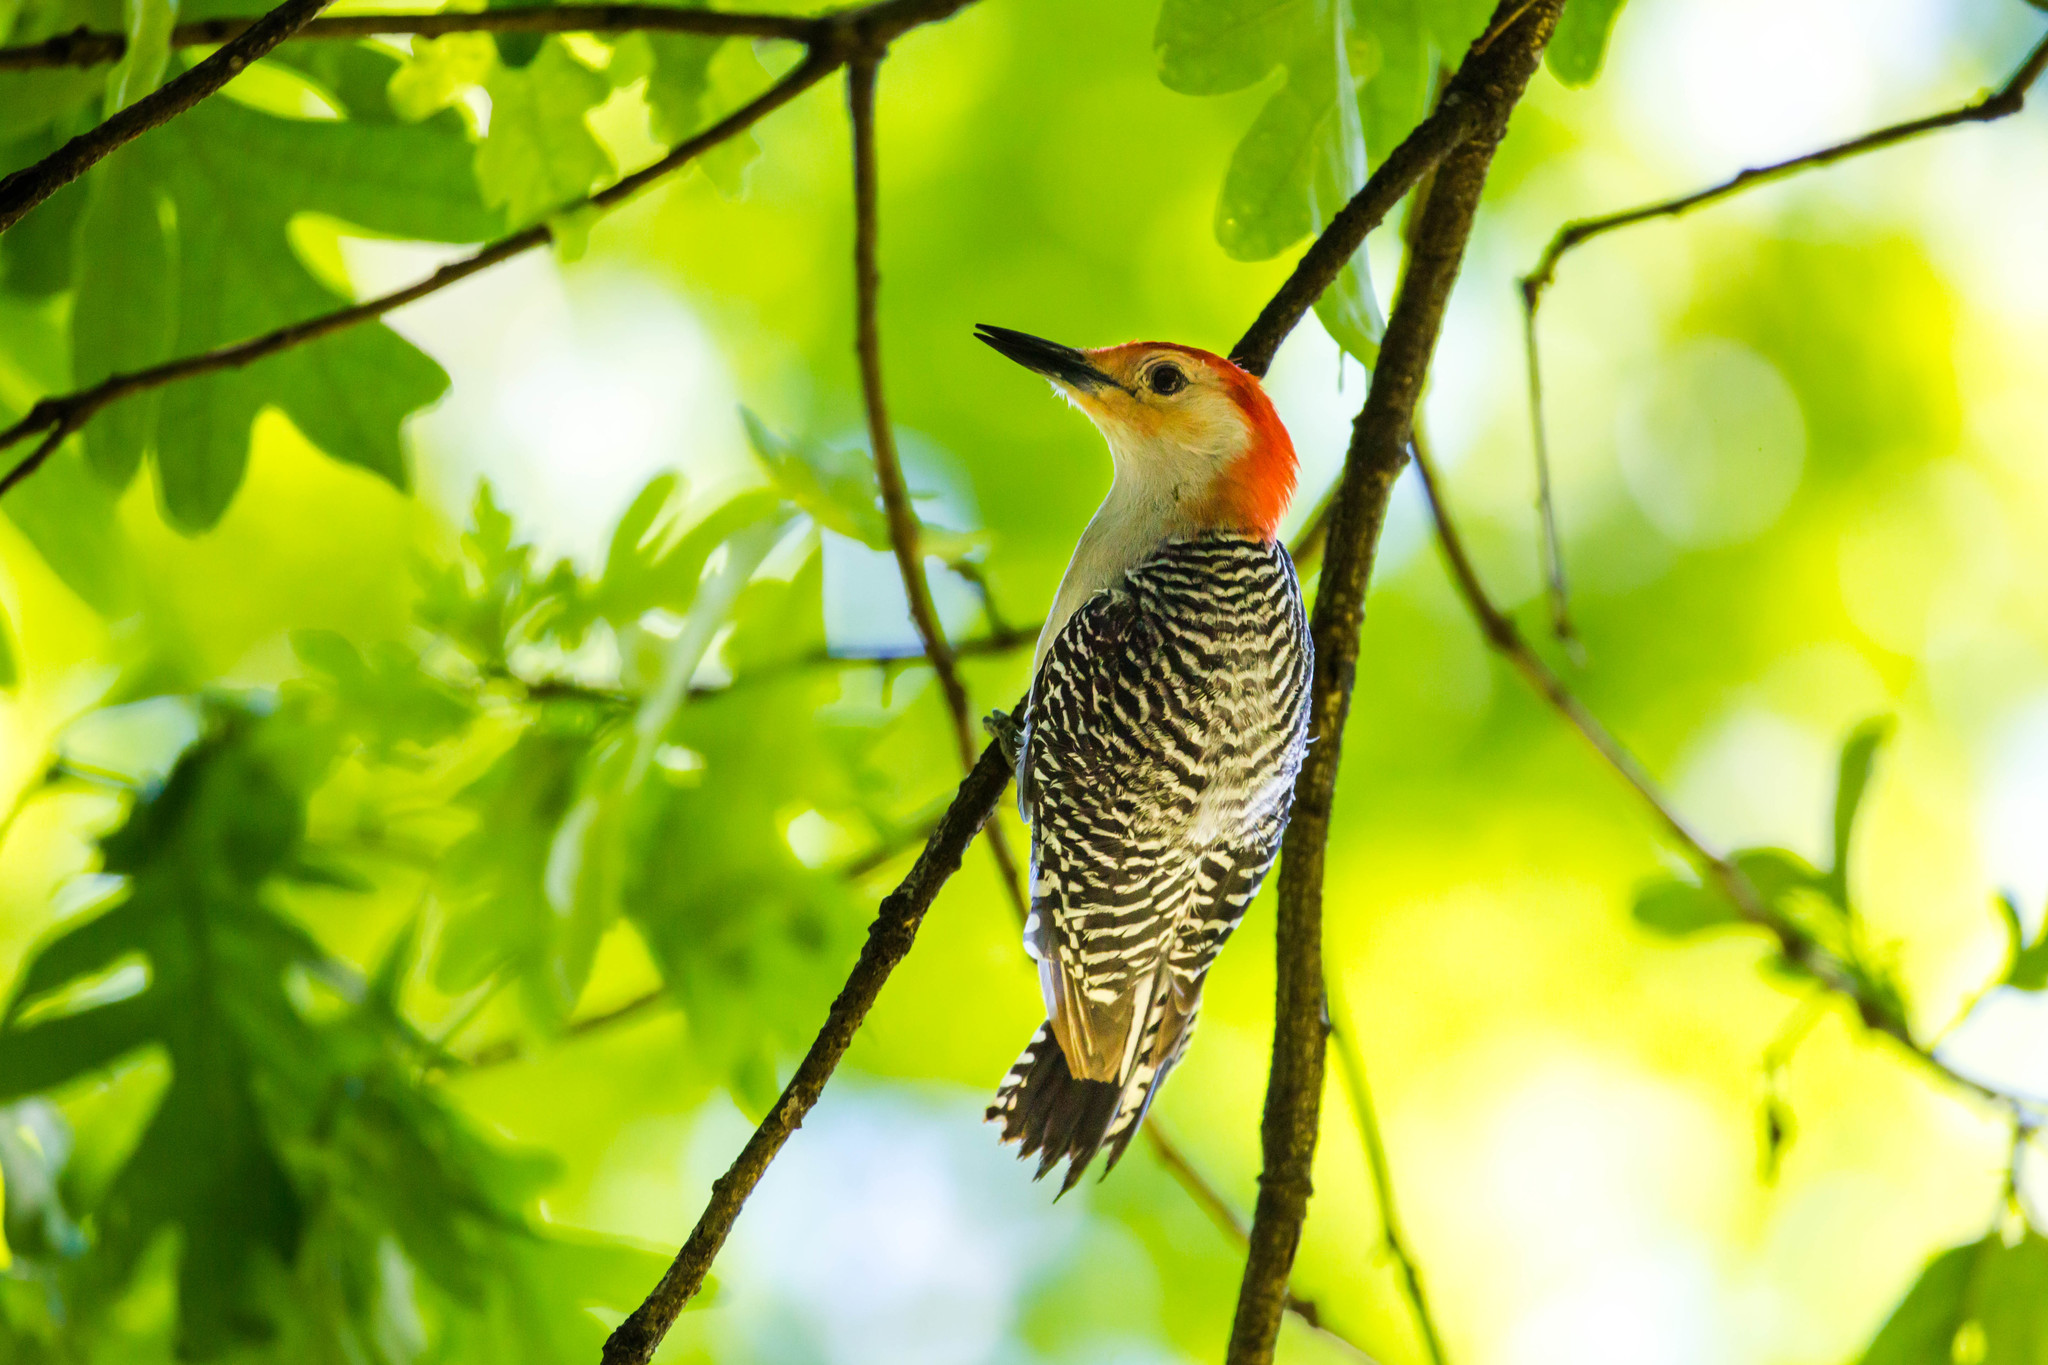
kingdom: Animalia
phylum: Chordata
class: Aves
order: Piciformes
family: Picidae
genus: Melanerpes
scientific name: Melanerpes carolinus
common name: Red-bellied woodpecker
